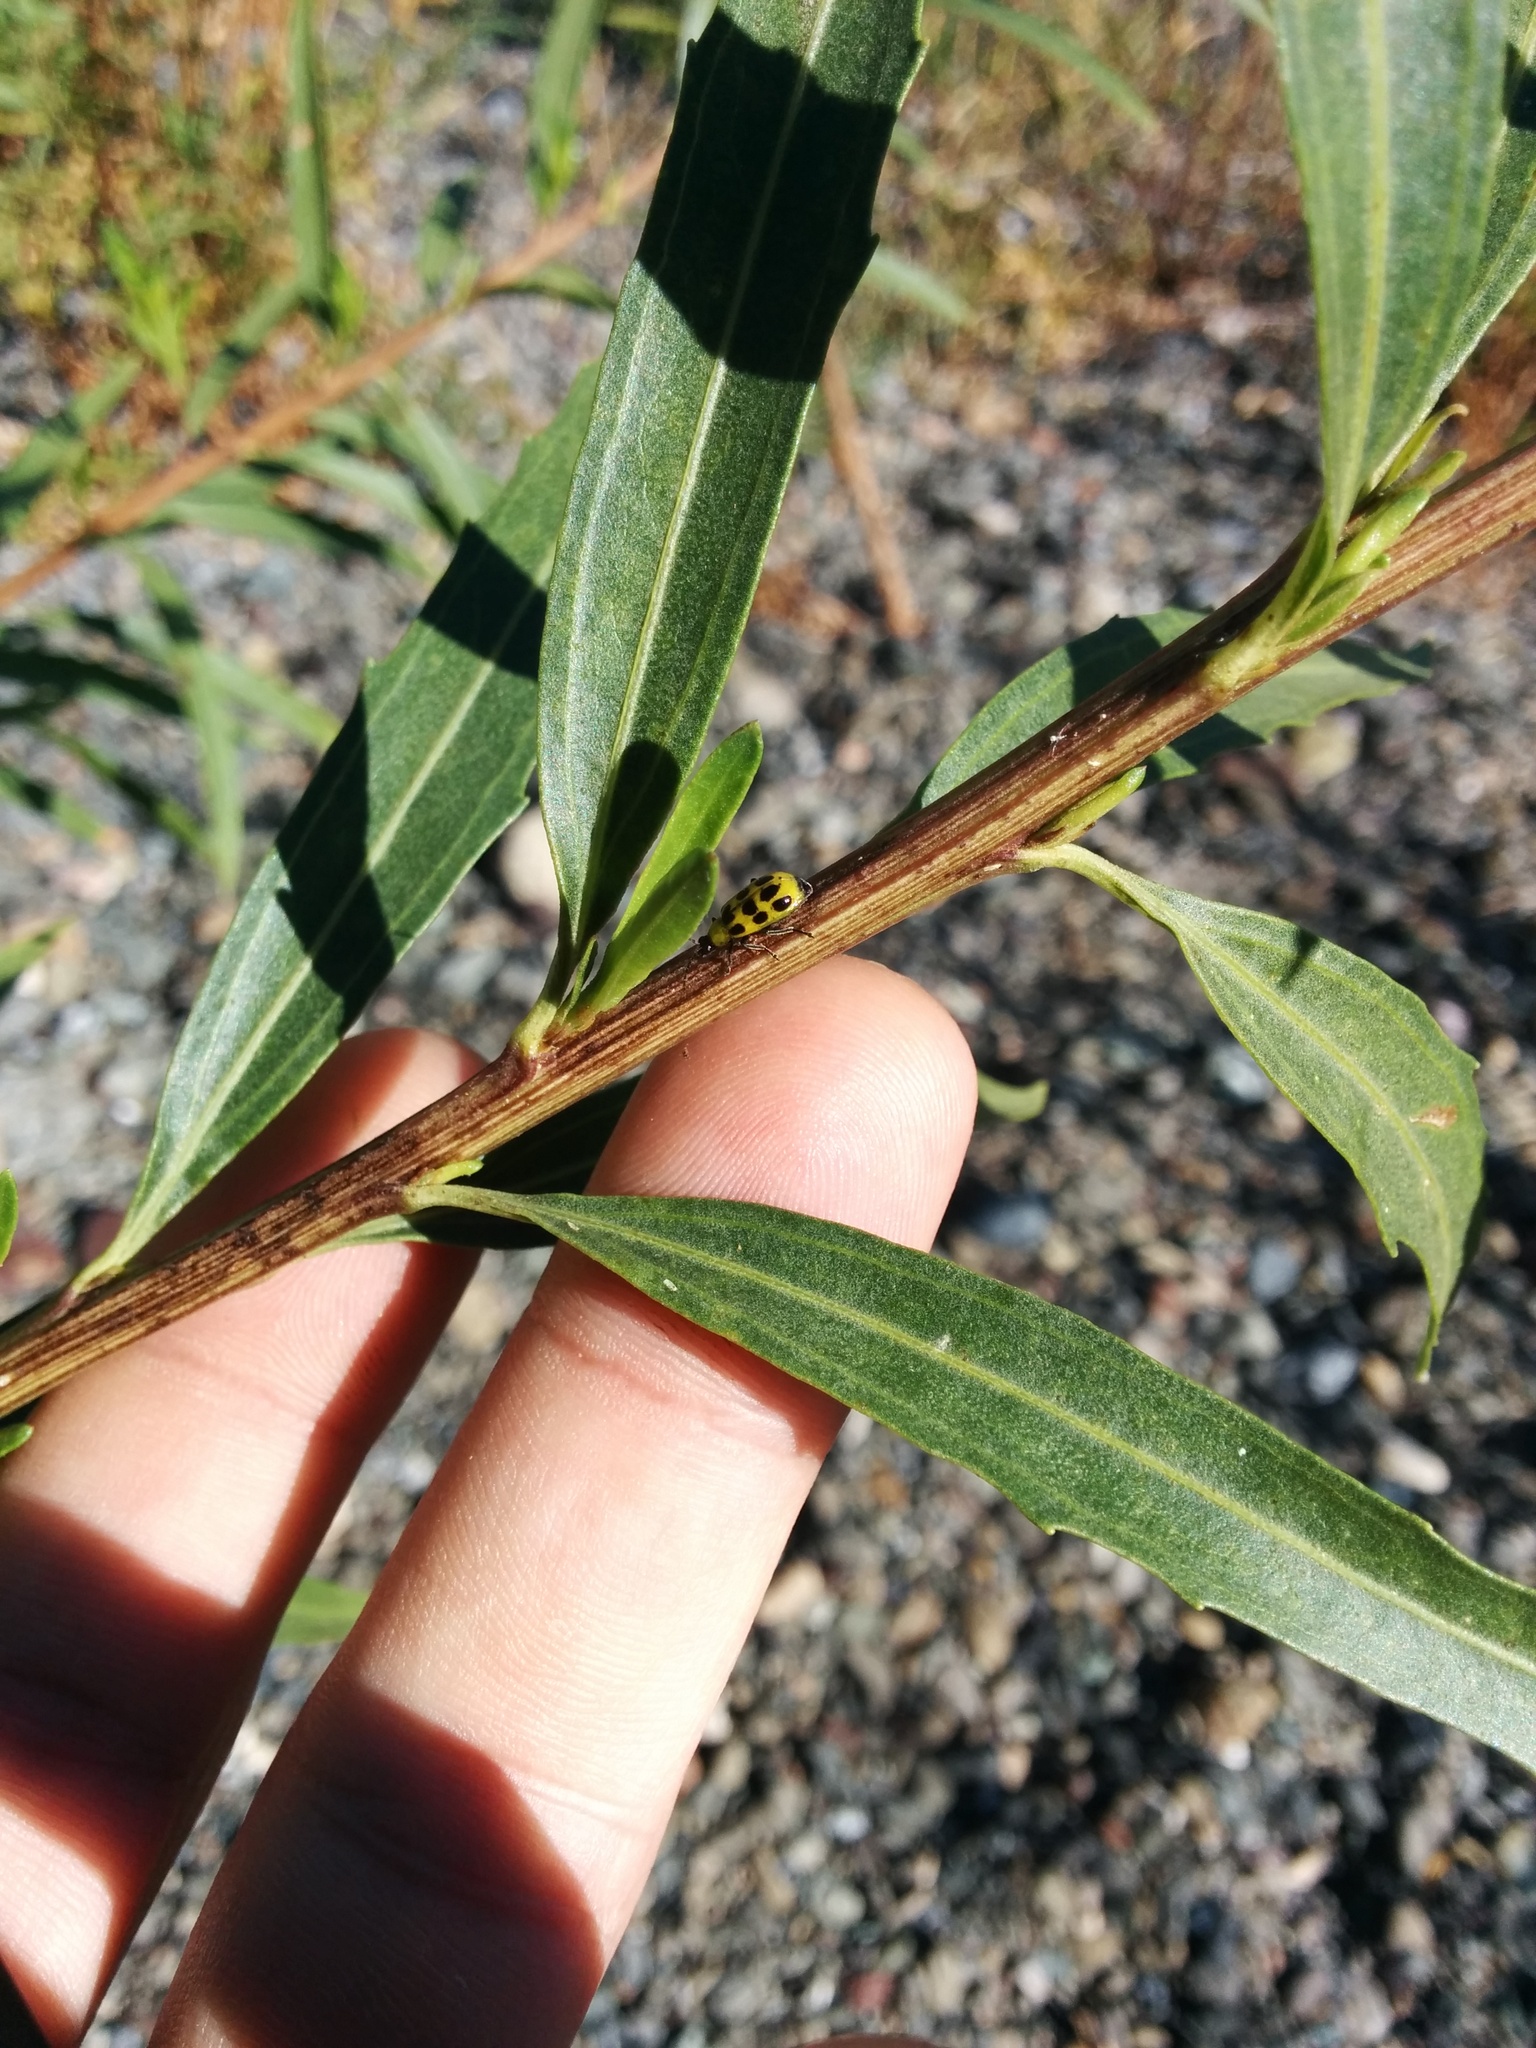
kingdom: Animalia
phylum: Arthropoda
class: Insecta
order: Coleoptera
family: Chrysomelidae
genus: Diabrotica
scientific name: Diabrotica undecimpunctata
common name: Spotted cucumber beetle
